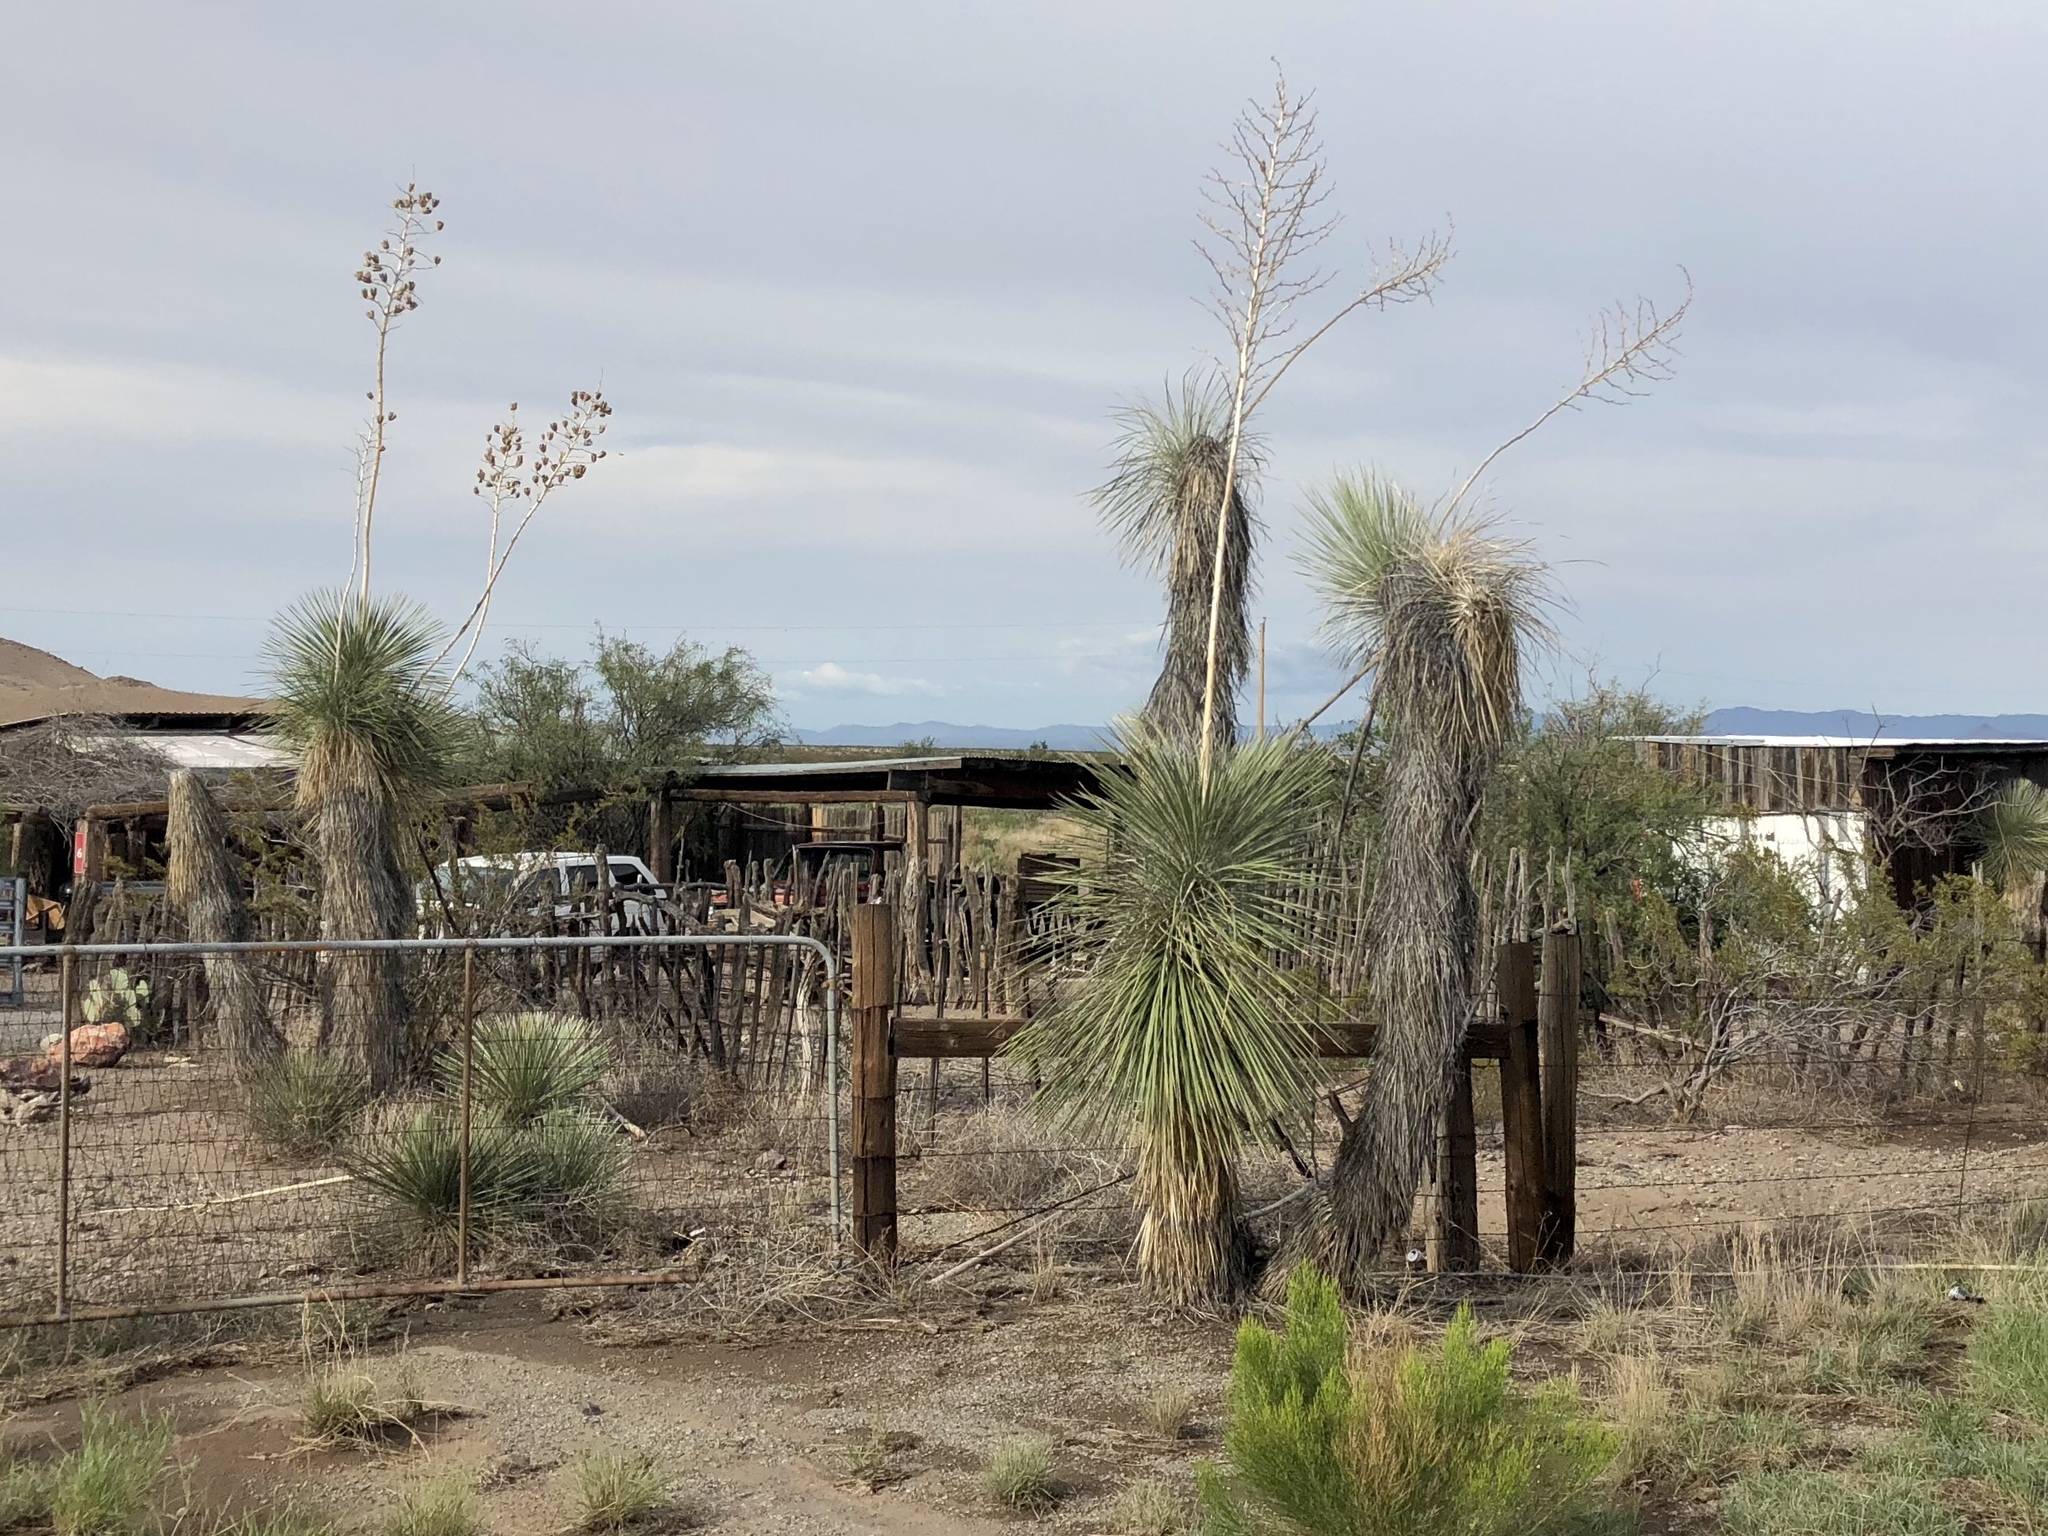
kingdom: Plantae
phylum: Tracheophyta
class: Liliopsida
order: Asparagales
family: Asparagaceae
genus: Yucca
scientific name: Yucca elata
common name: Palmella
